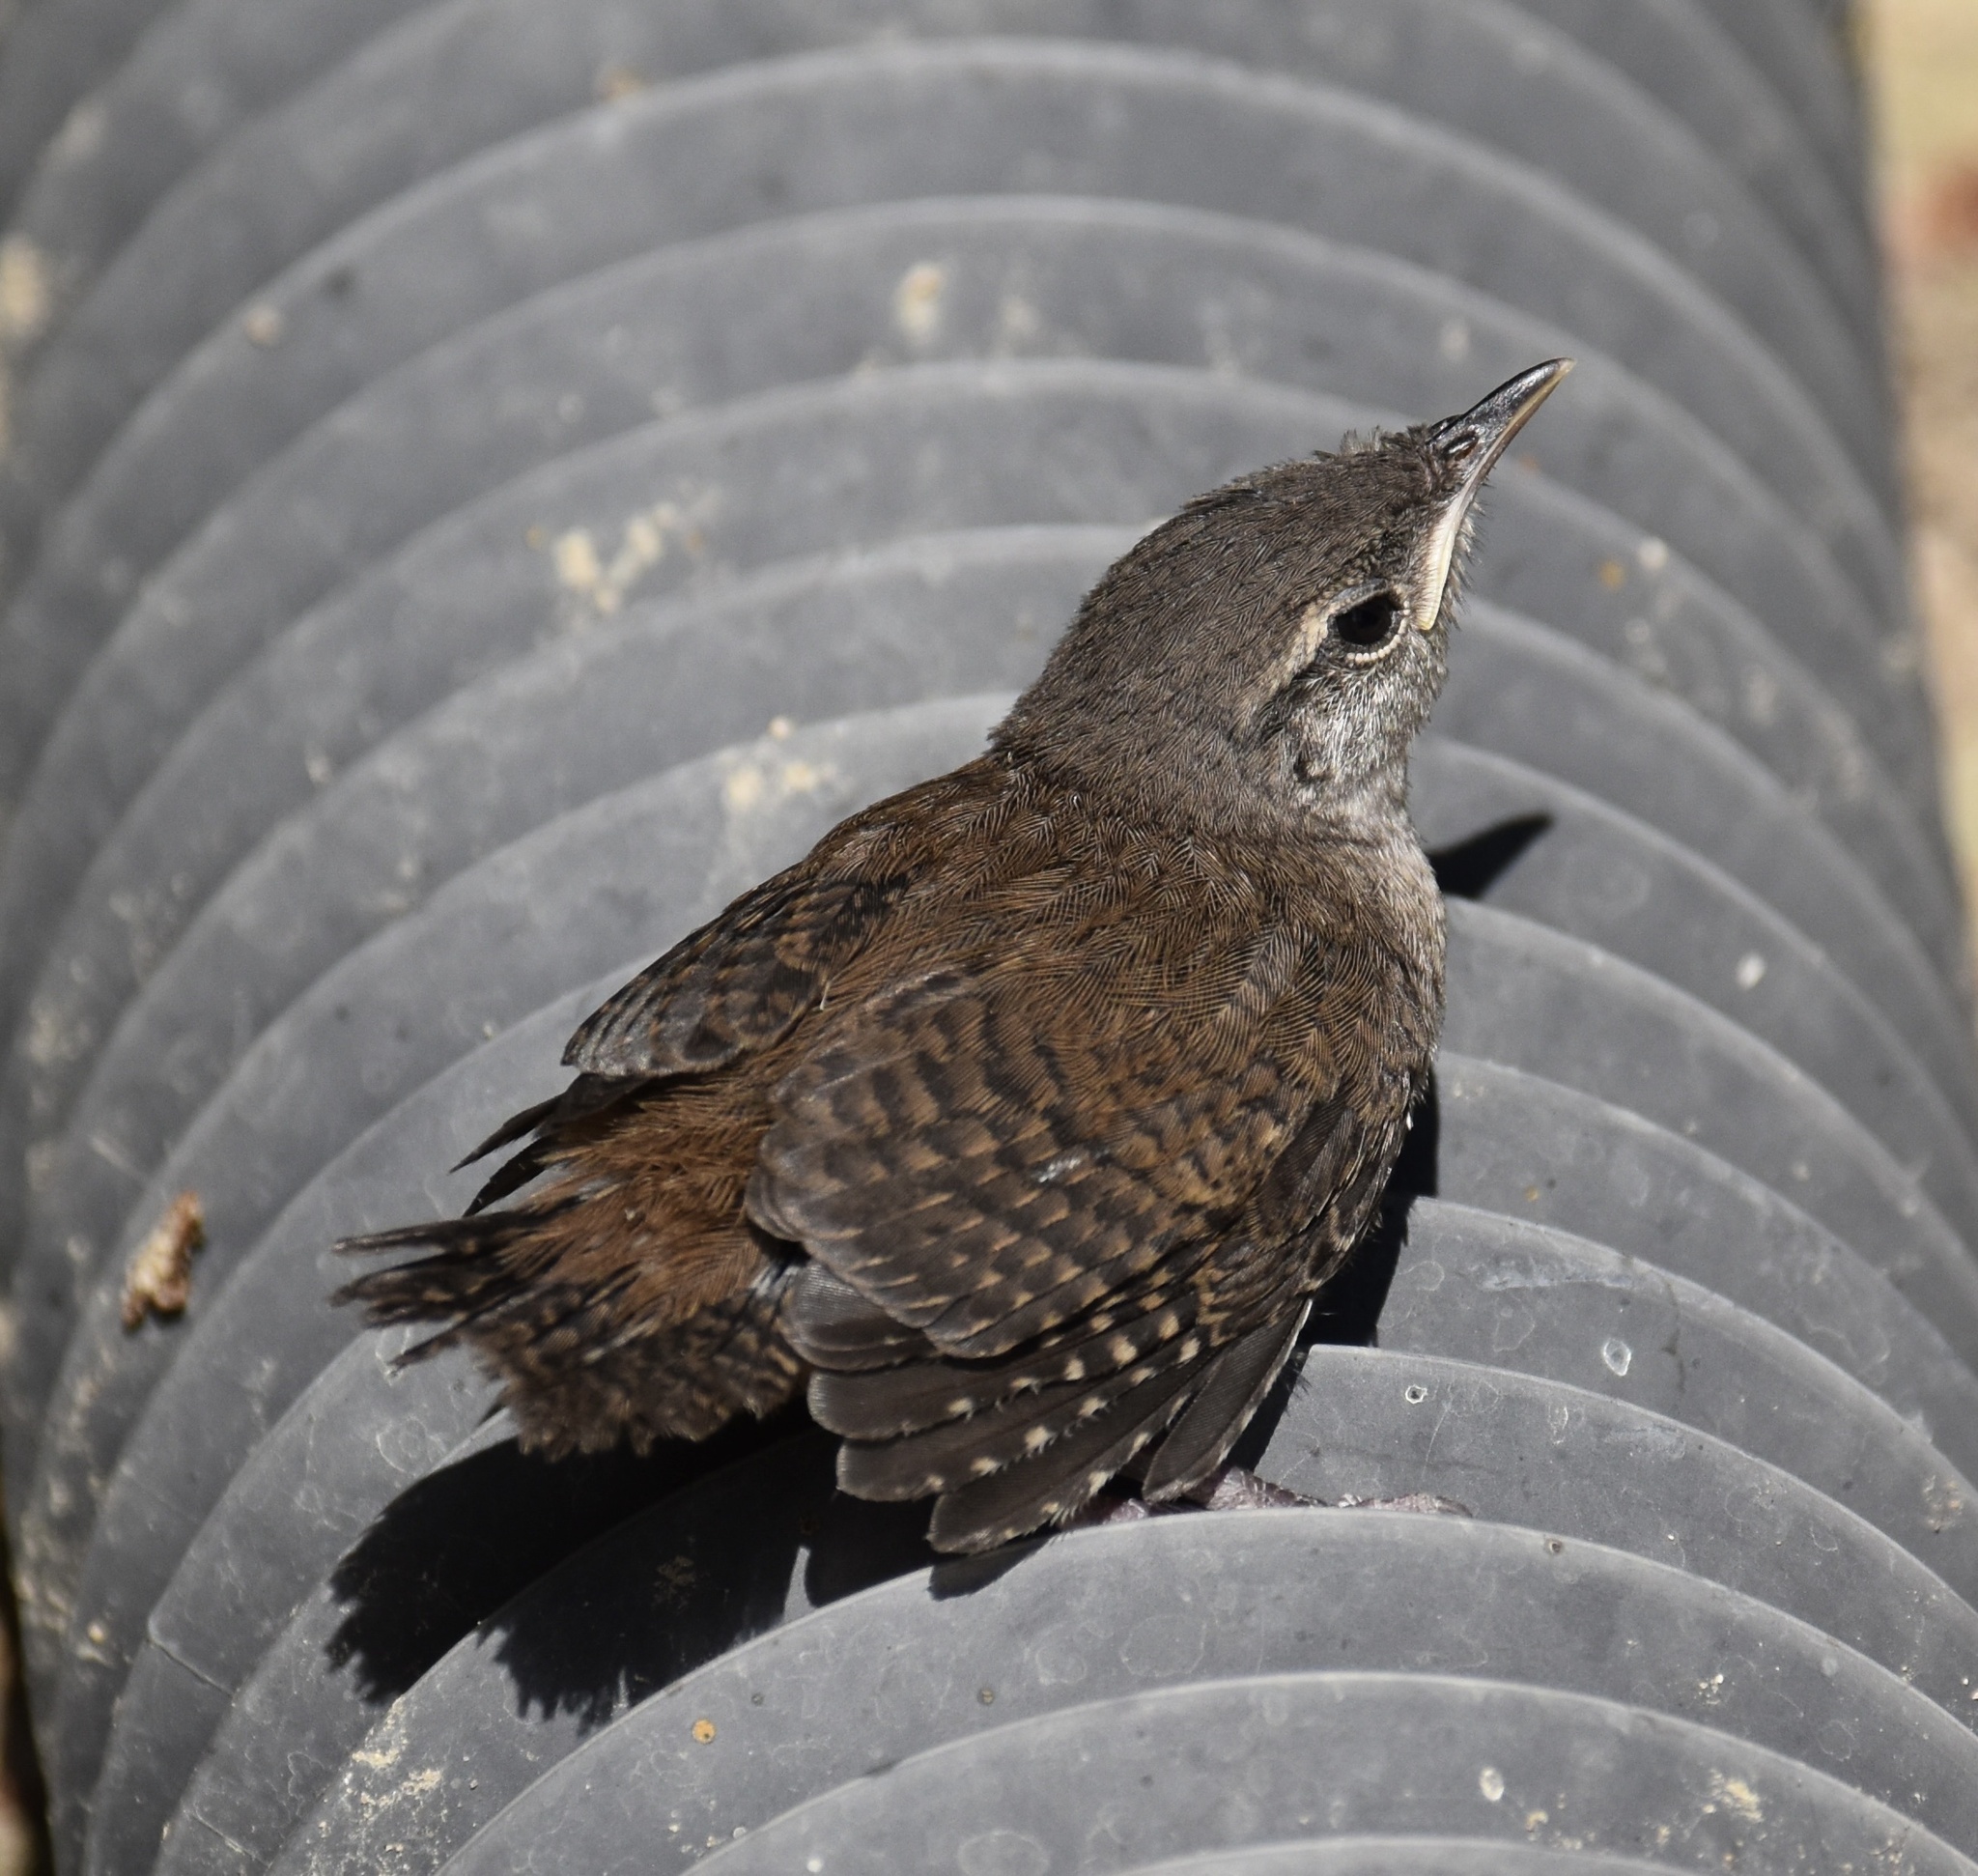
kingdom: Animalia
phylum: Chordata
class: Aves
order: Passeriformes
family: Troglodytidae
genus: Troglodytes
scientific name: Troglodytes aedon
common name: House wren
